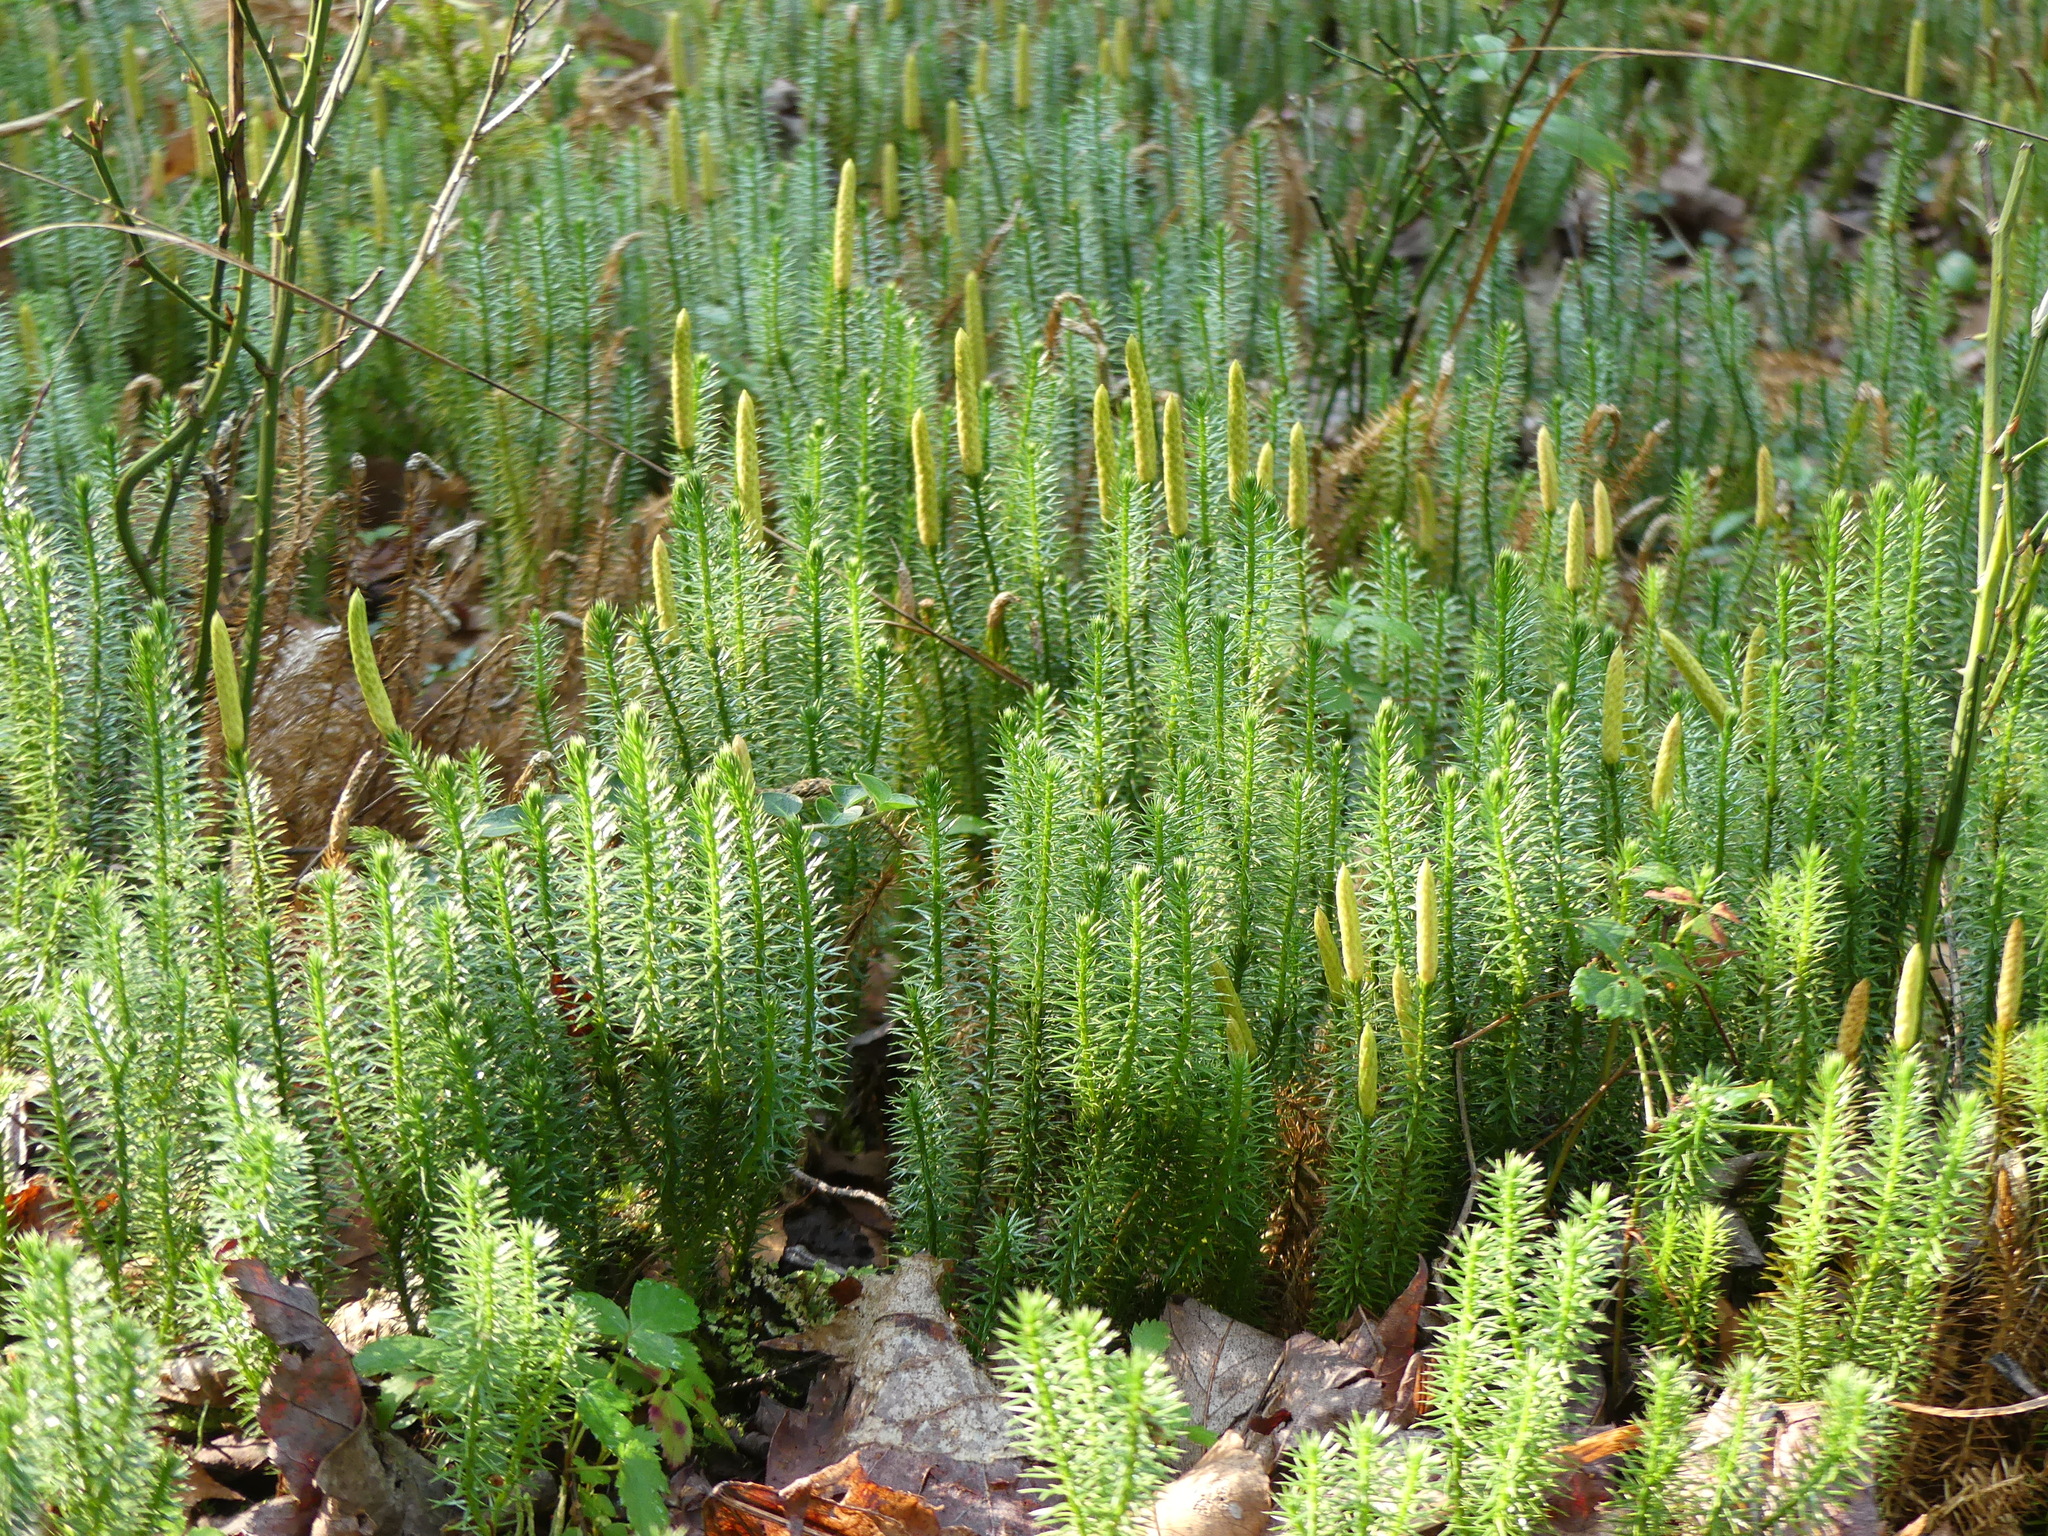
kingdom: Plantae
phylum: Tracheophyta
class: Lycopodiopsida
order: Lycopodiales
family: Lycopodiaceae
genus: Spinulum
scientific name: Spinulum annotinum
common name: Interrupted club-moss
